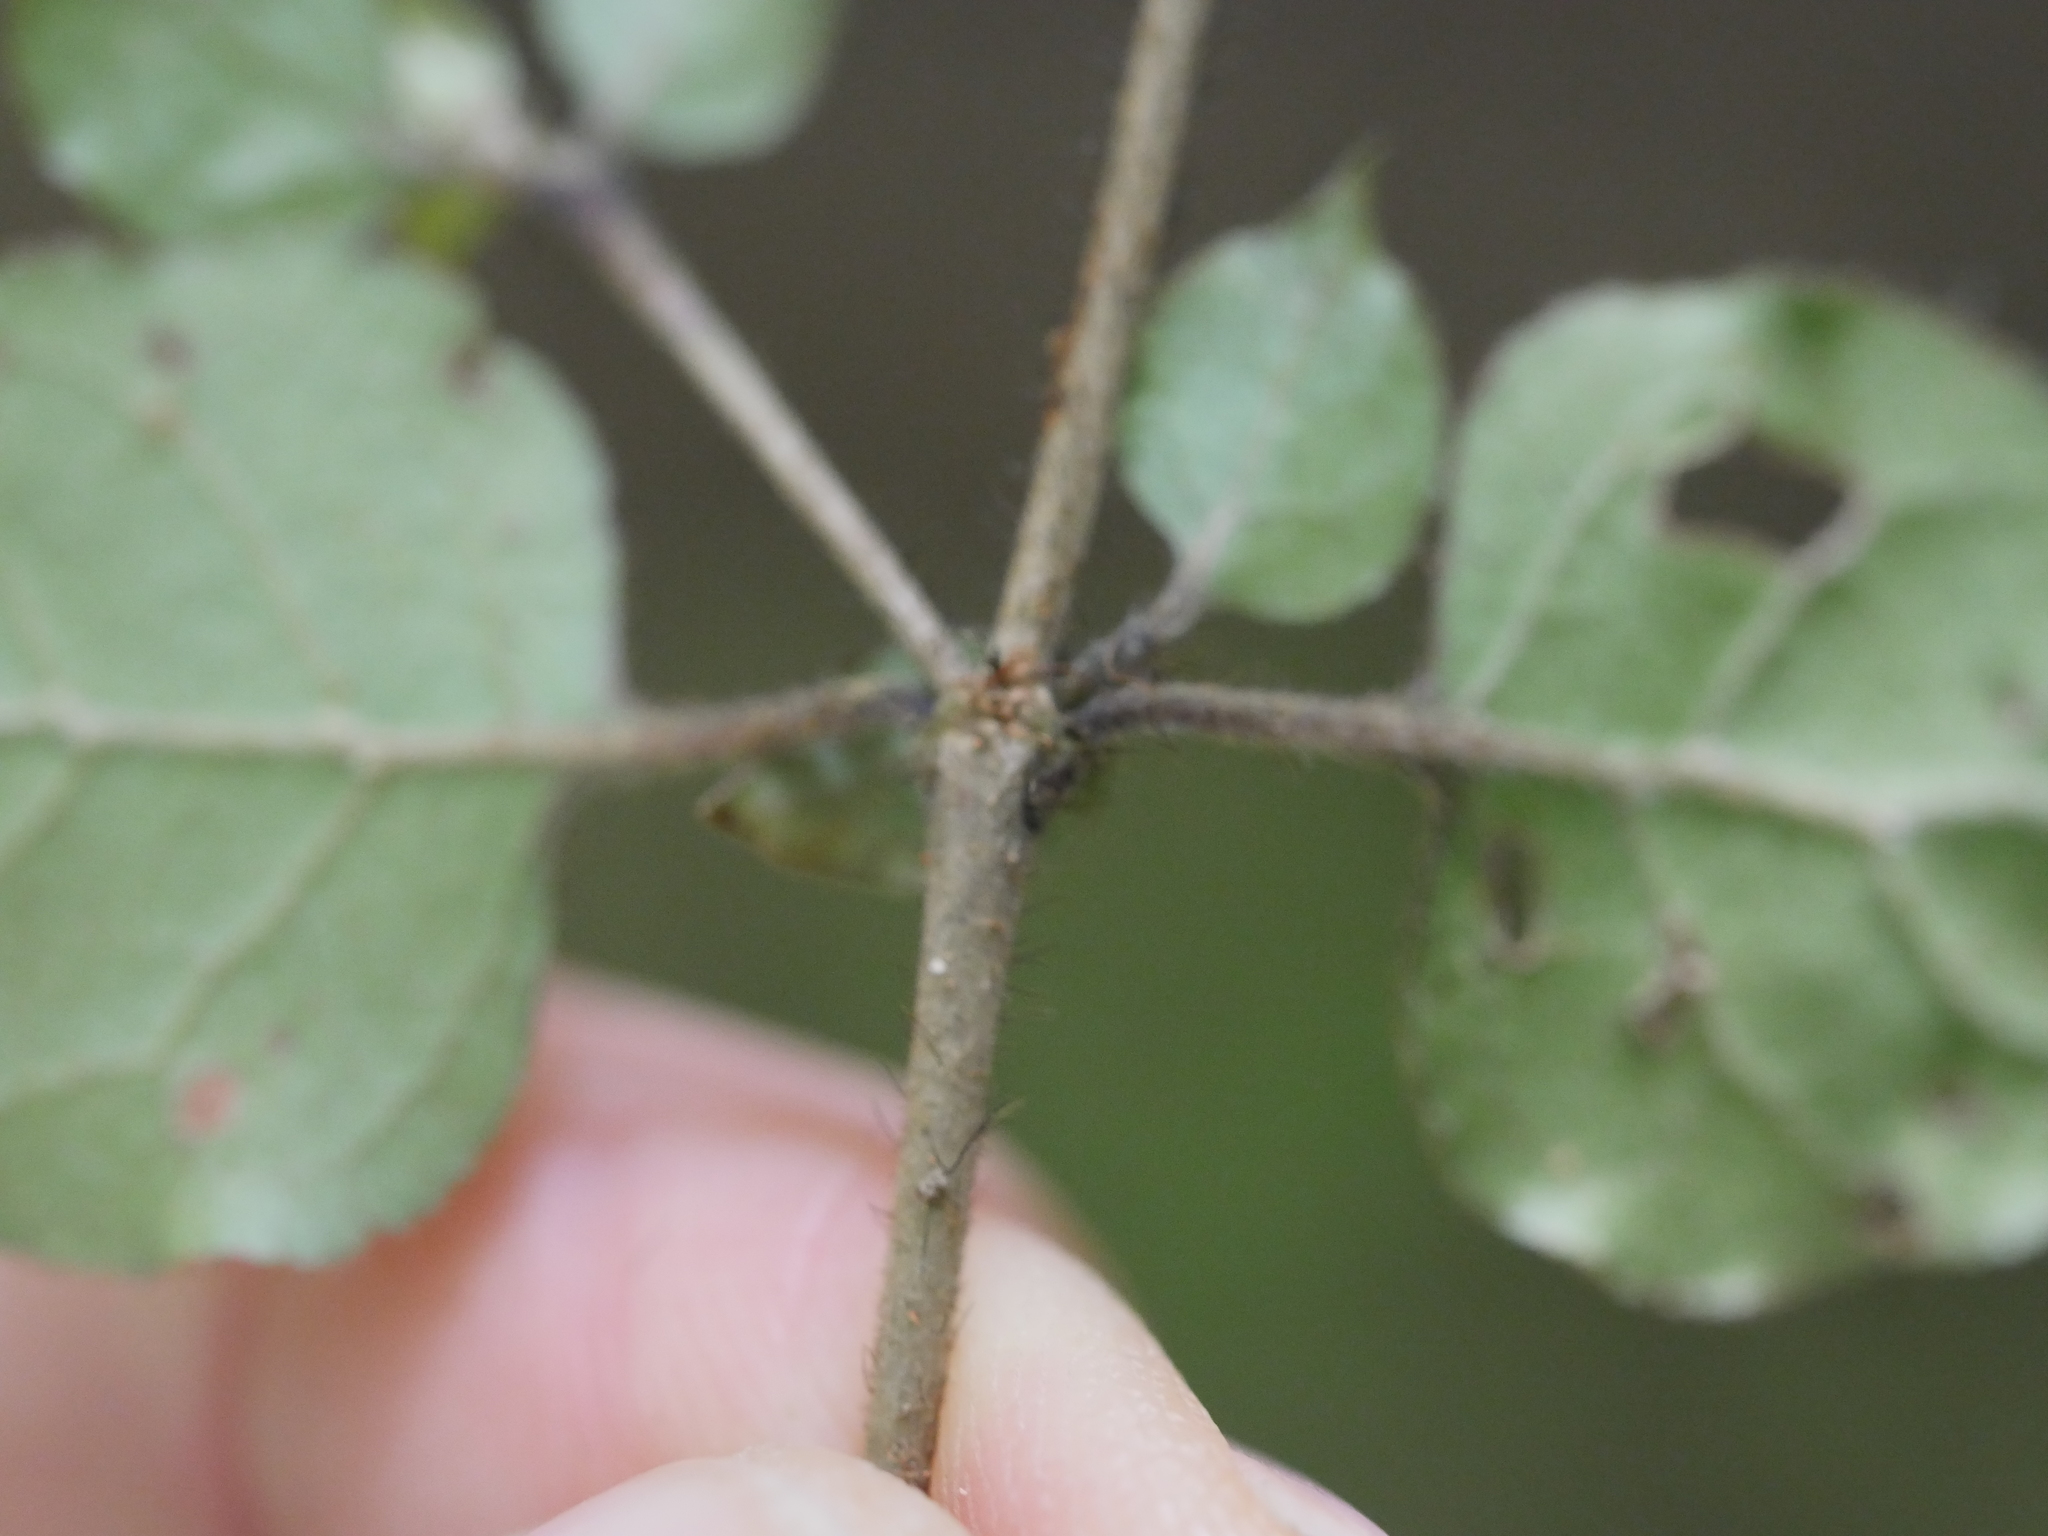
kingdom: Plantae
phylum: Tracheophyta
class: Magnoliopsida
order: Gentianales
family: Rubiaceae
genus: Coprosma
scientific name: Coprosma rotundifolia
